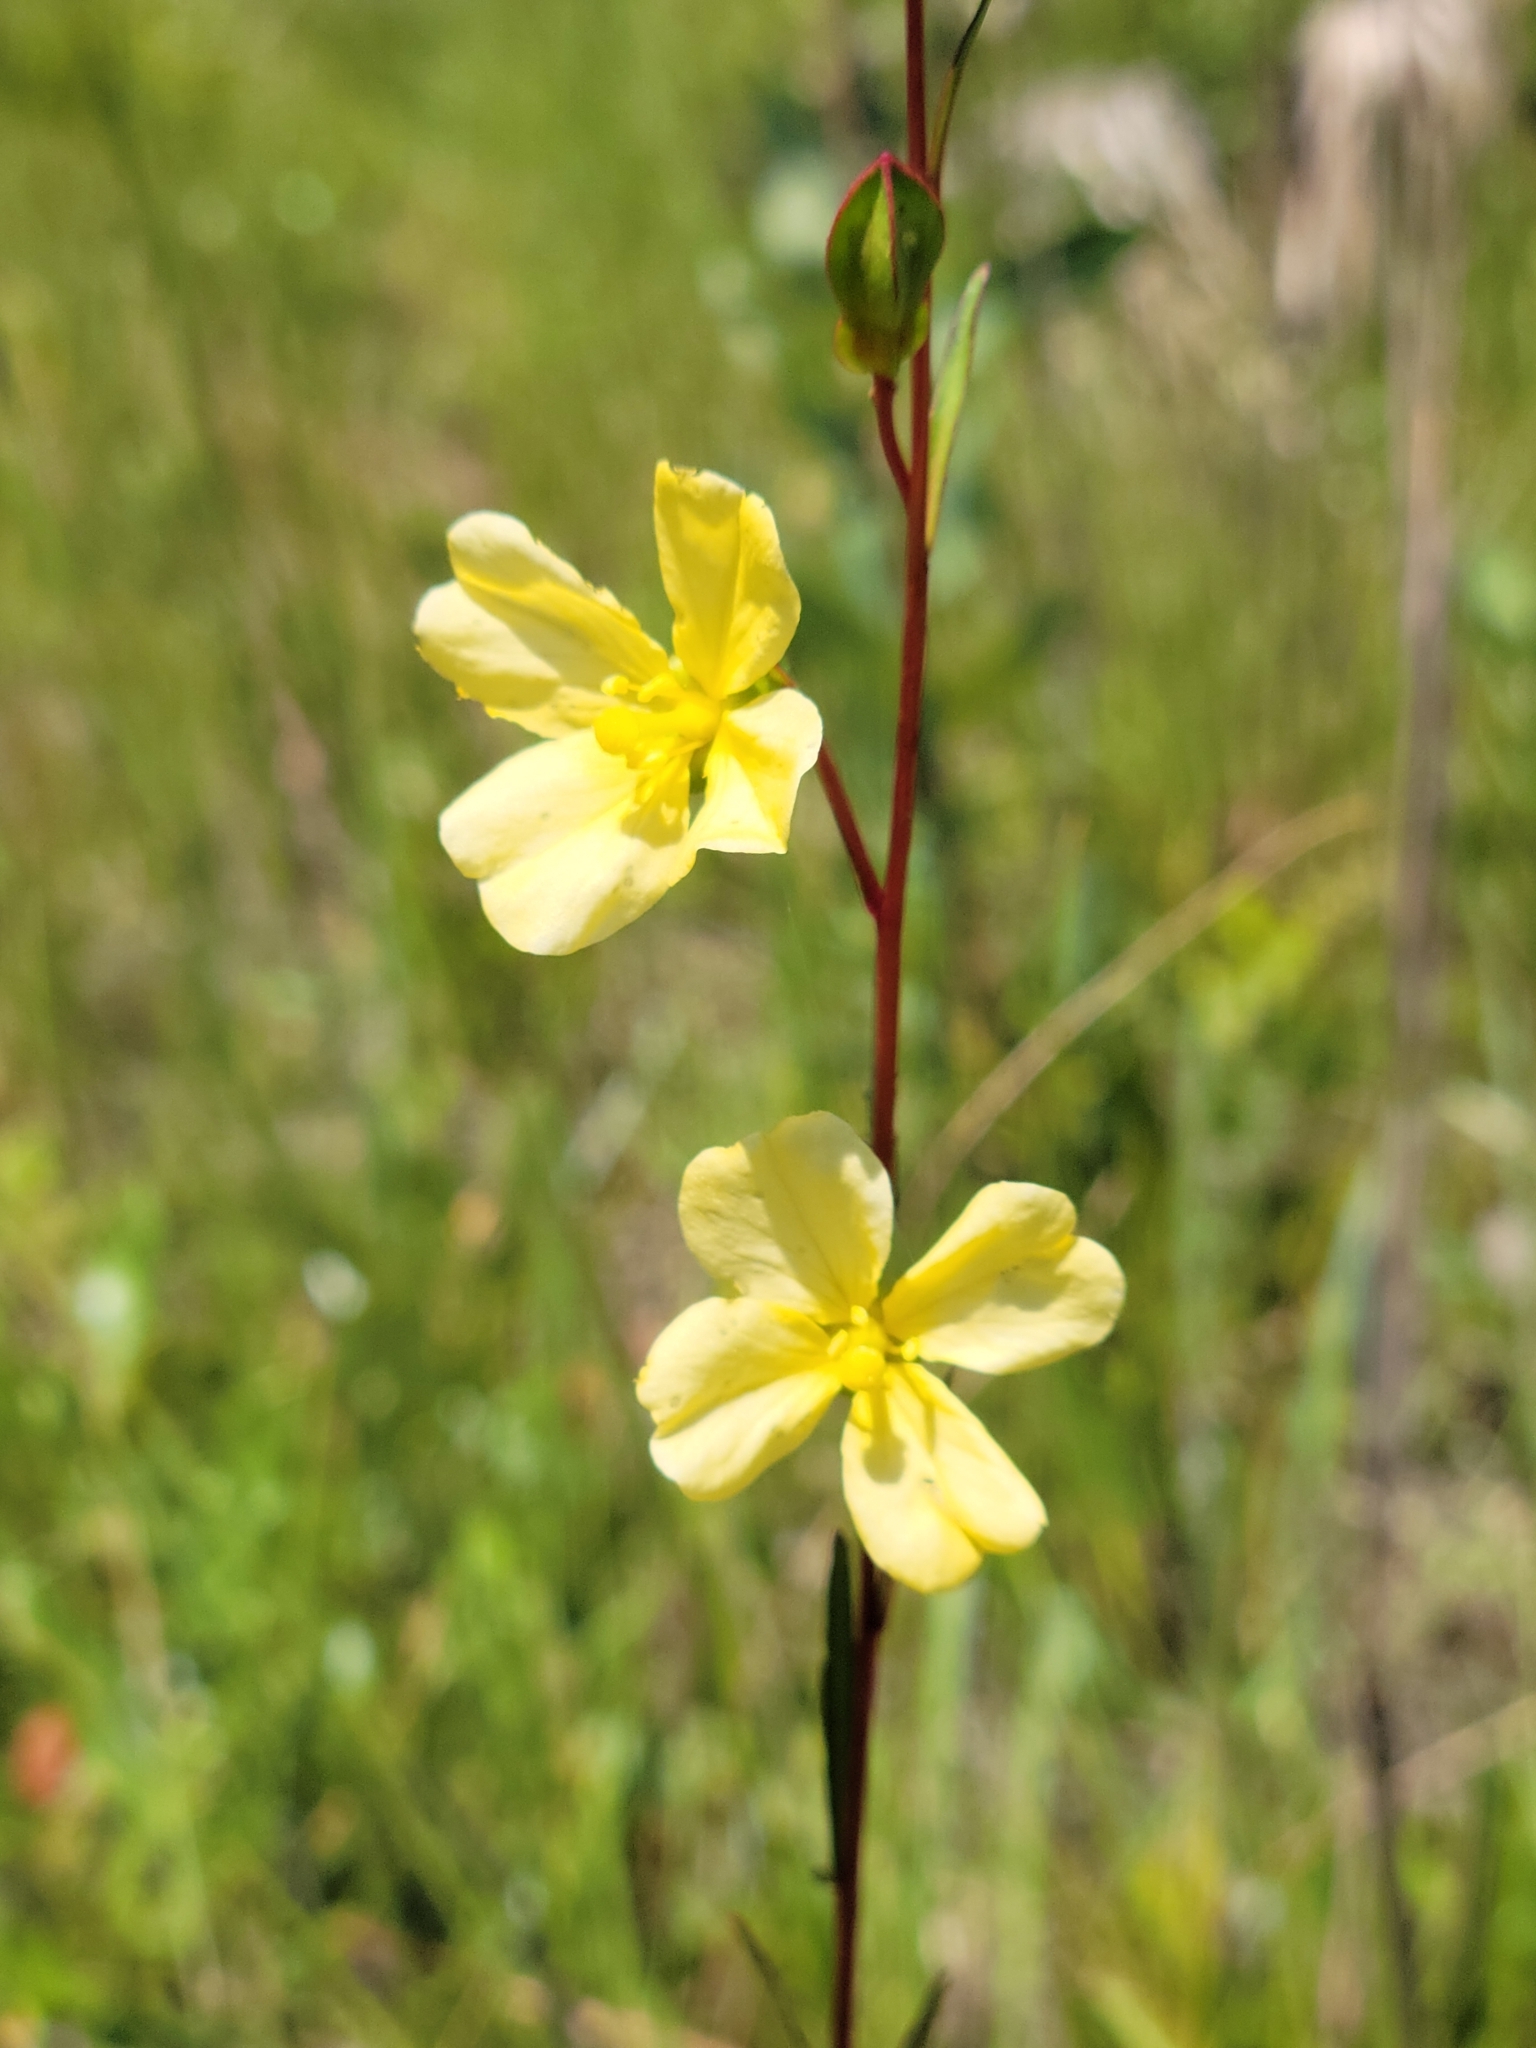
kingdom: Plantae
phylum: Tracheophyta
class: Magnoliopsida
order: Myrtales
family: Onagraceae
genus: Ludwigia
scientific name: Ludwigia maritima
